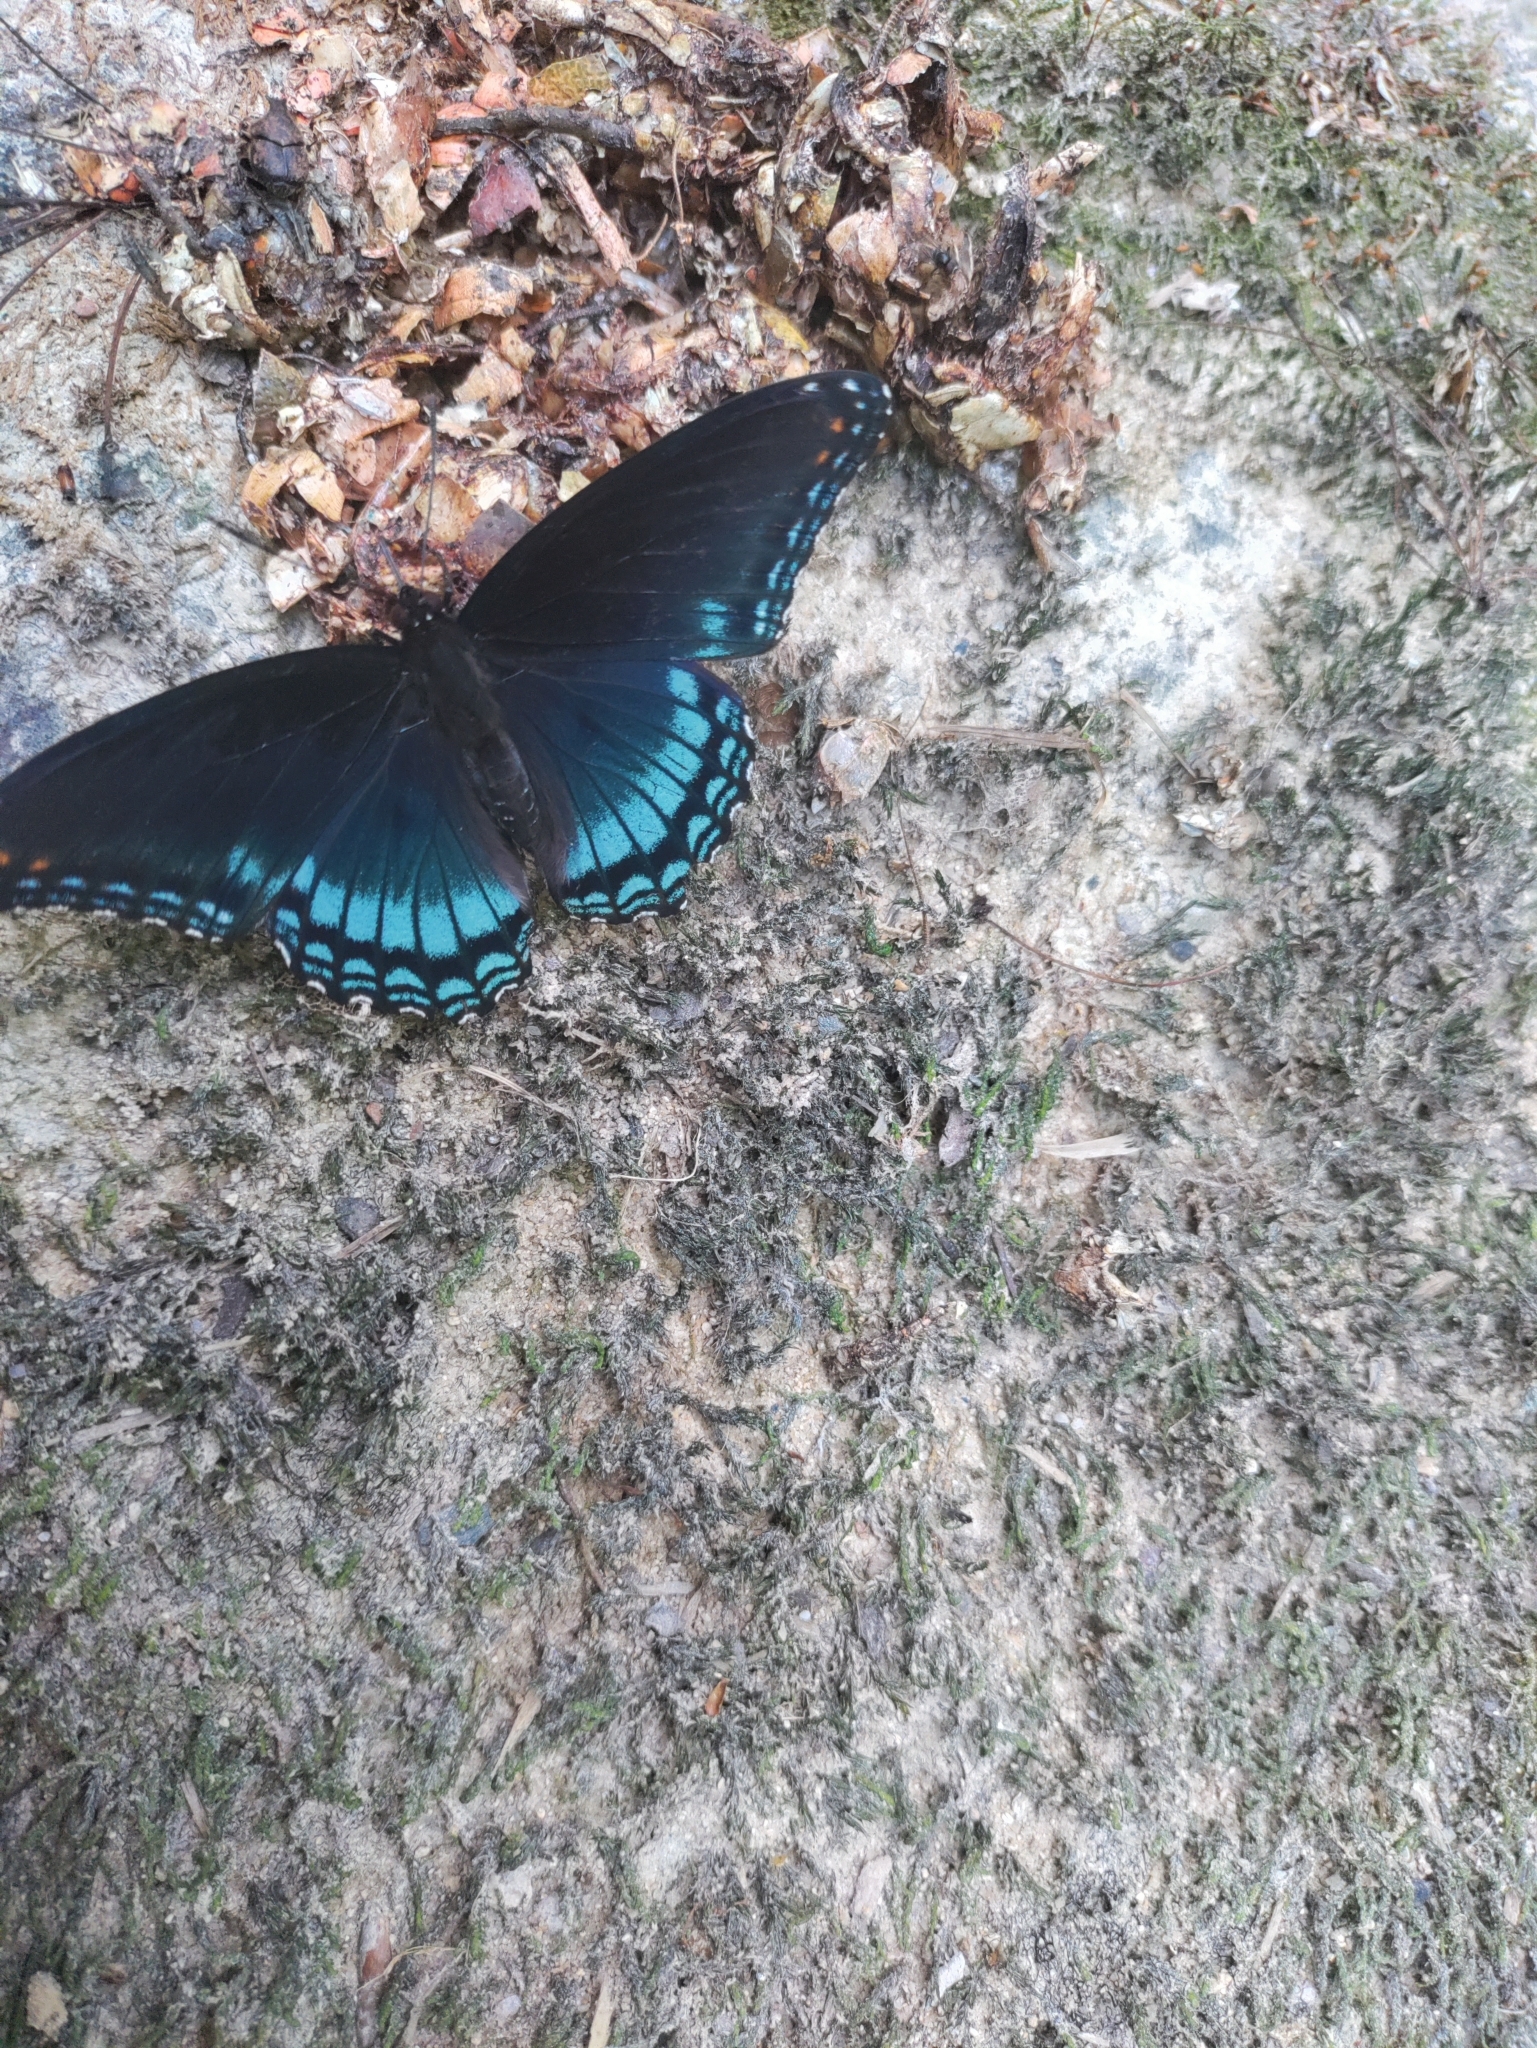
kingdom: Animalia
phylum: Arthropoda
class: Insecta
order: Lepidoptera
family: Nymphalidae
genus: Limenitis
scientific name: Limenitis astyanax
